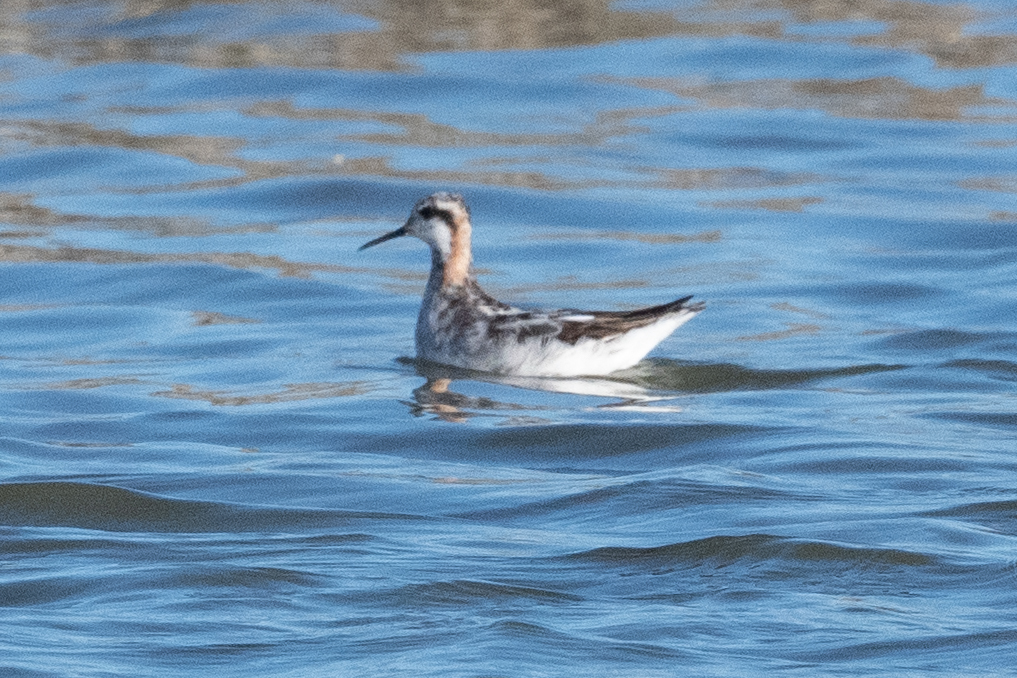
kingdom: Animalia
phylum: Chordata
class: Aves
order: Charadriiformes
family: Scolopacidae
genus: Phalaropus
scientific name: Phalaropus lobatus
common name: Red-necked phalarope
